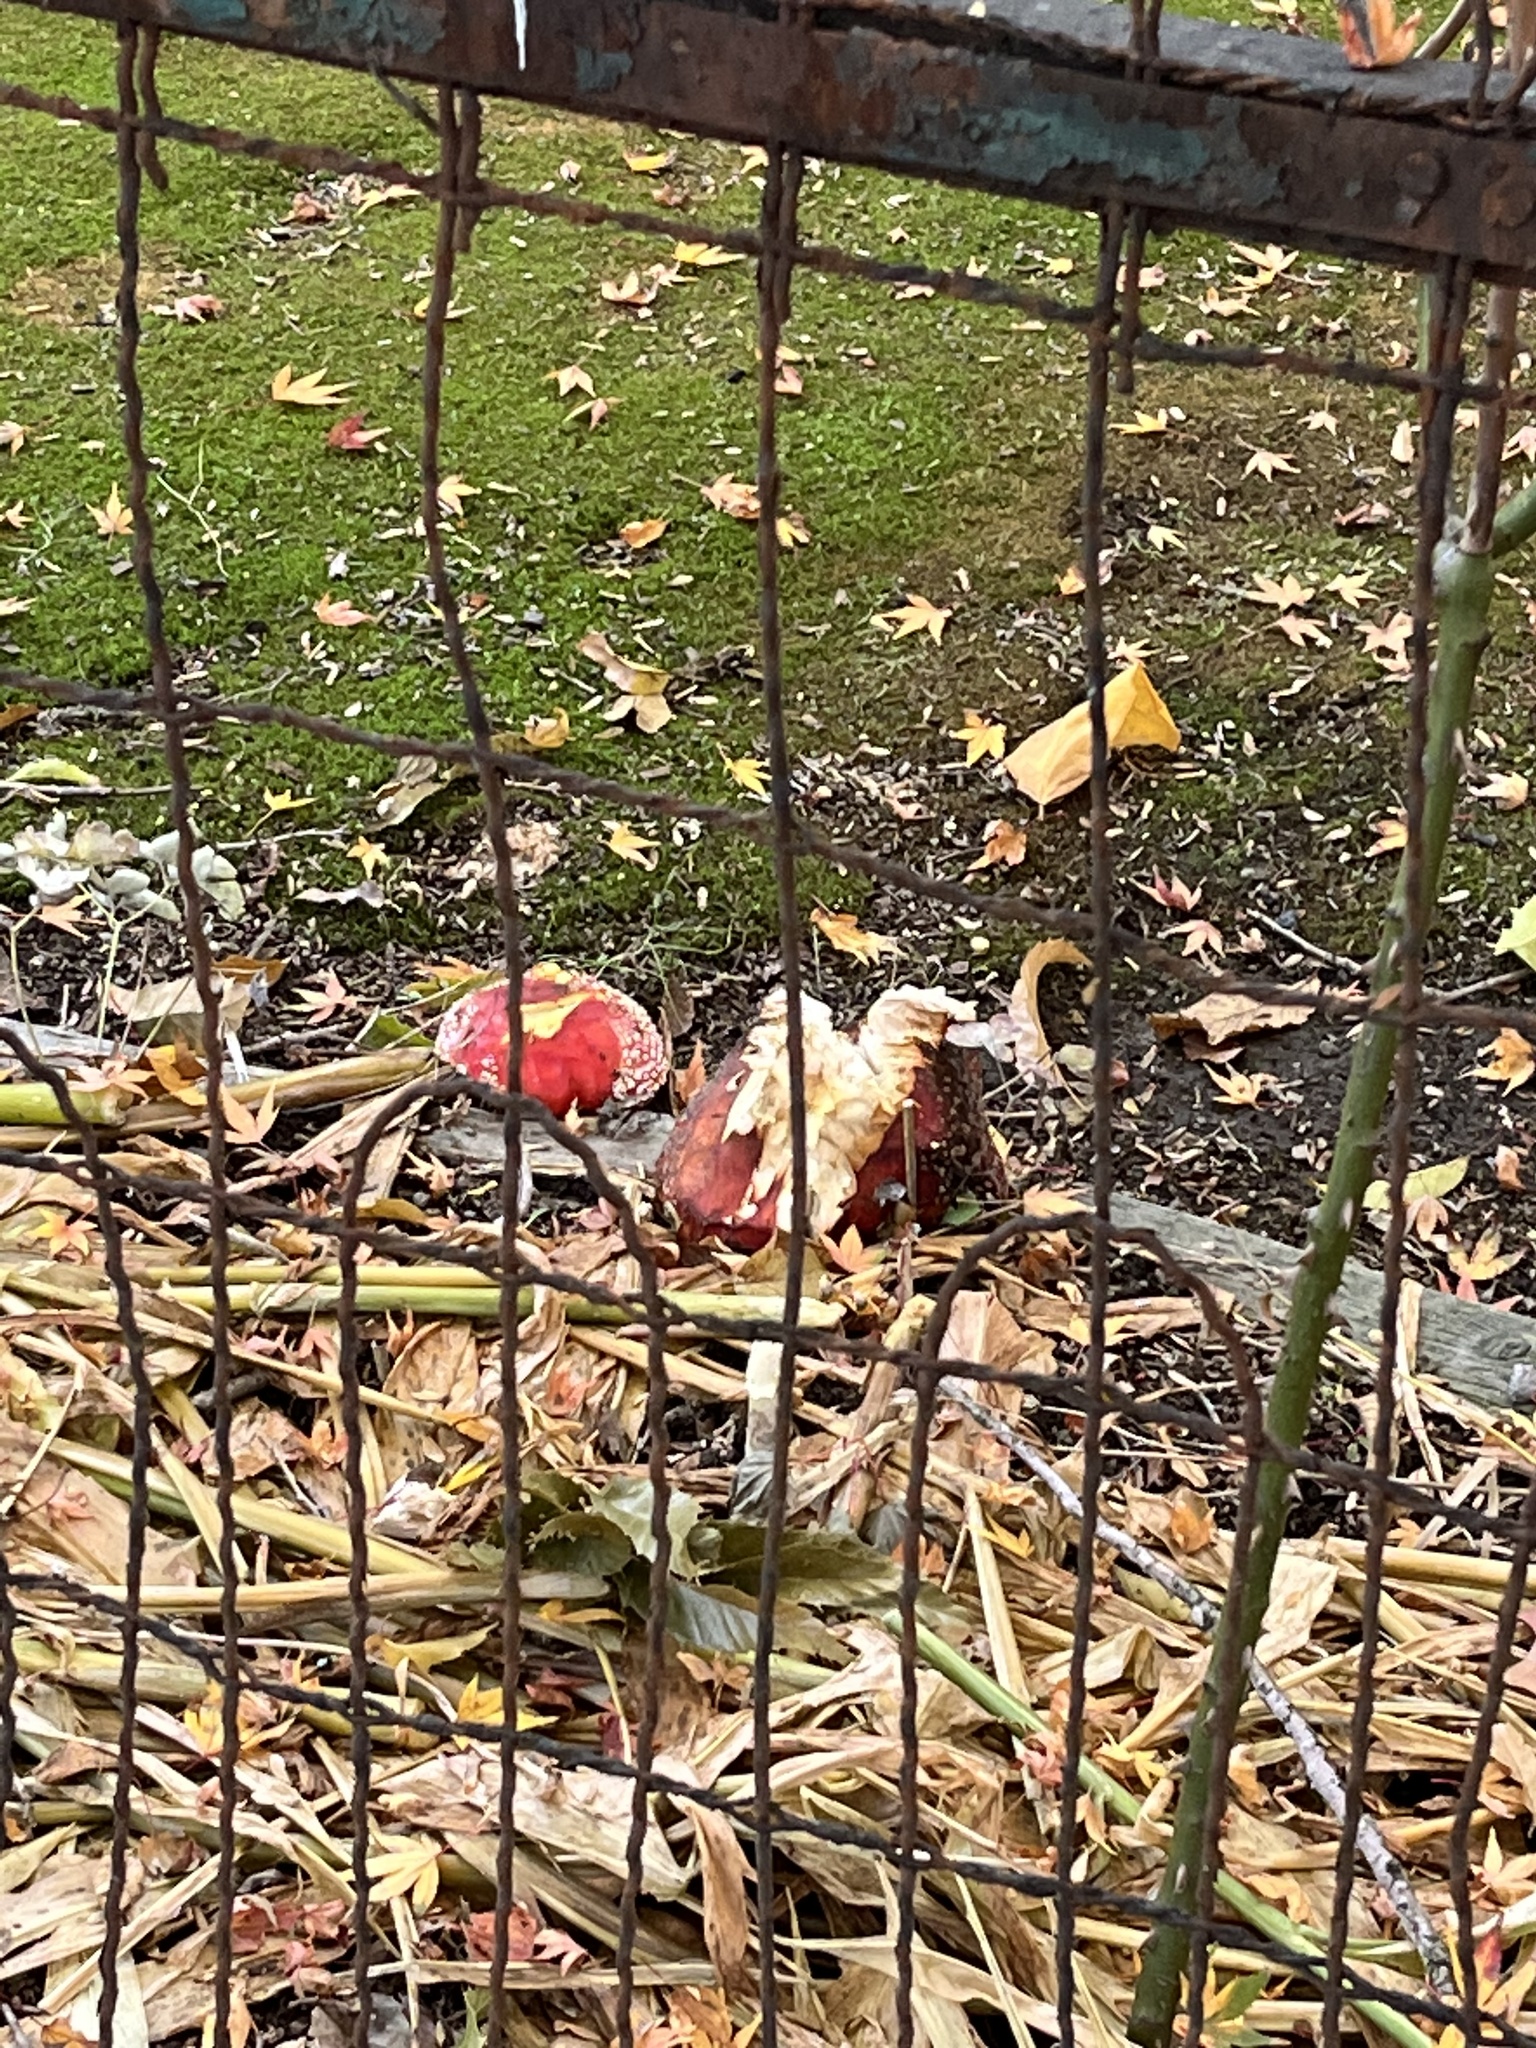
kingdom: Fungi
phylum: Basidiomycota
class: Agaricomycetes
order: Agaricales
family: Amanitaceae
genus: Amanita
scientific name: Amanita muscaria
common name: Fly agaric
